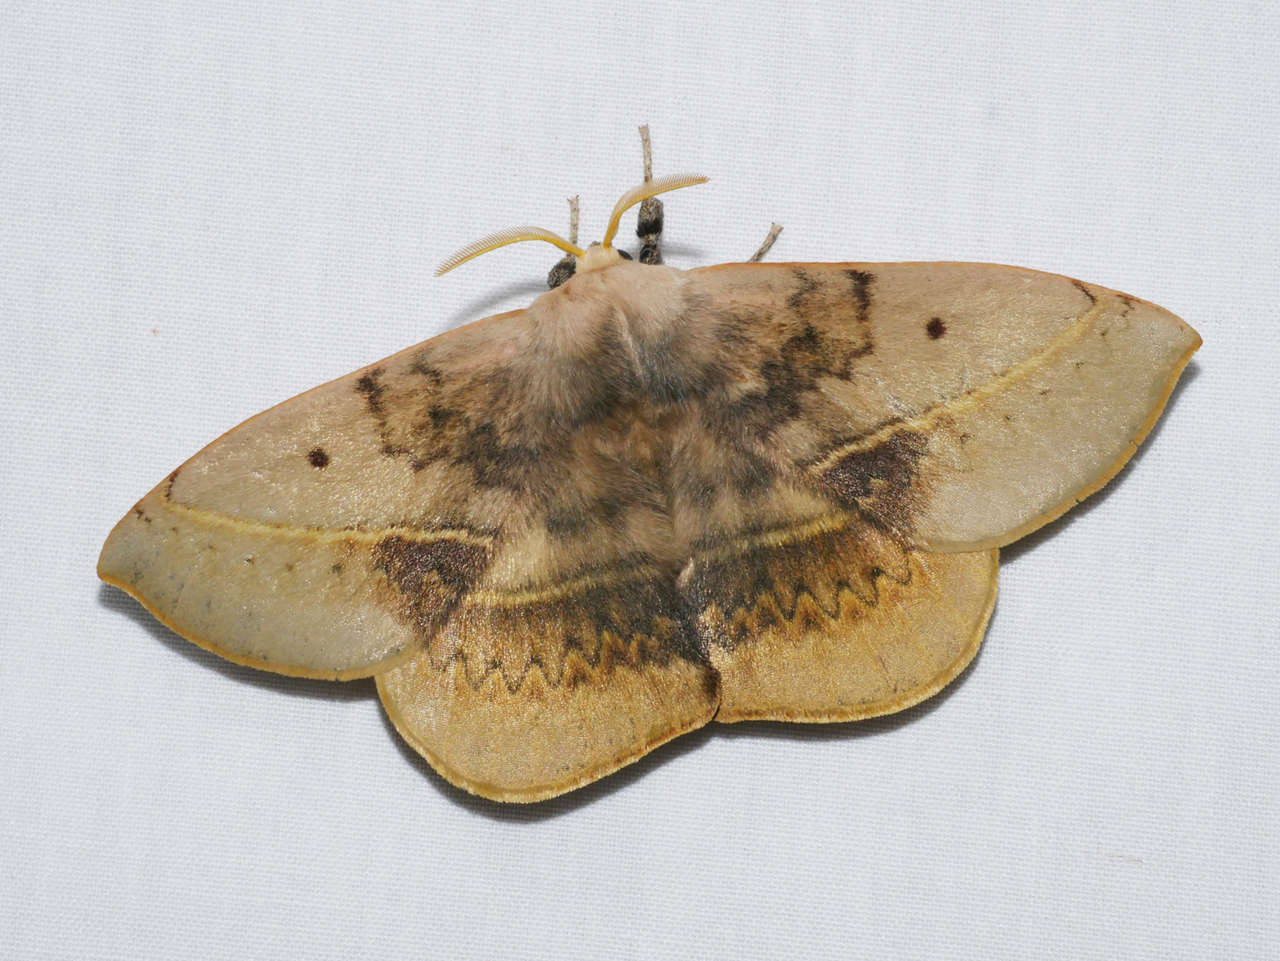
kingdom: Animalia
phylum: Arthropoda
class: Insecta
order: Lepidoptera
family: Anthelidae
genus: Anthela
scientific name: Anthela varia
